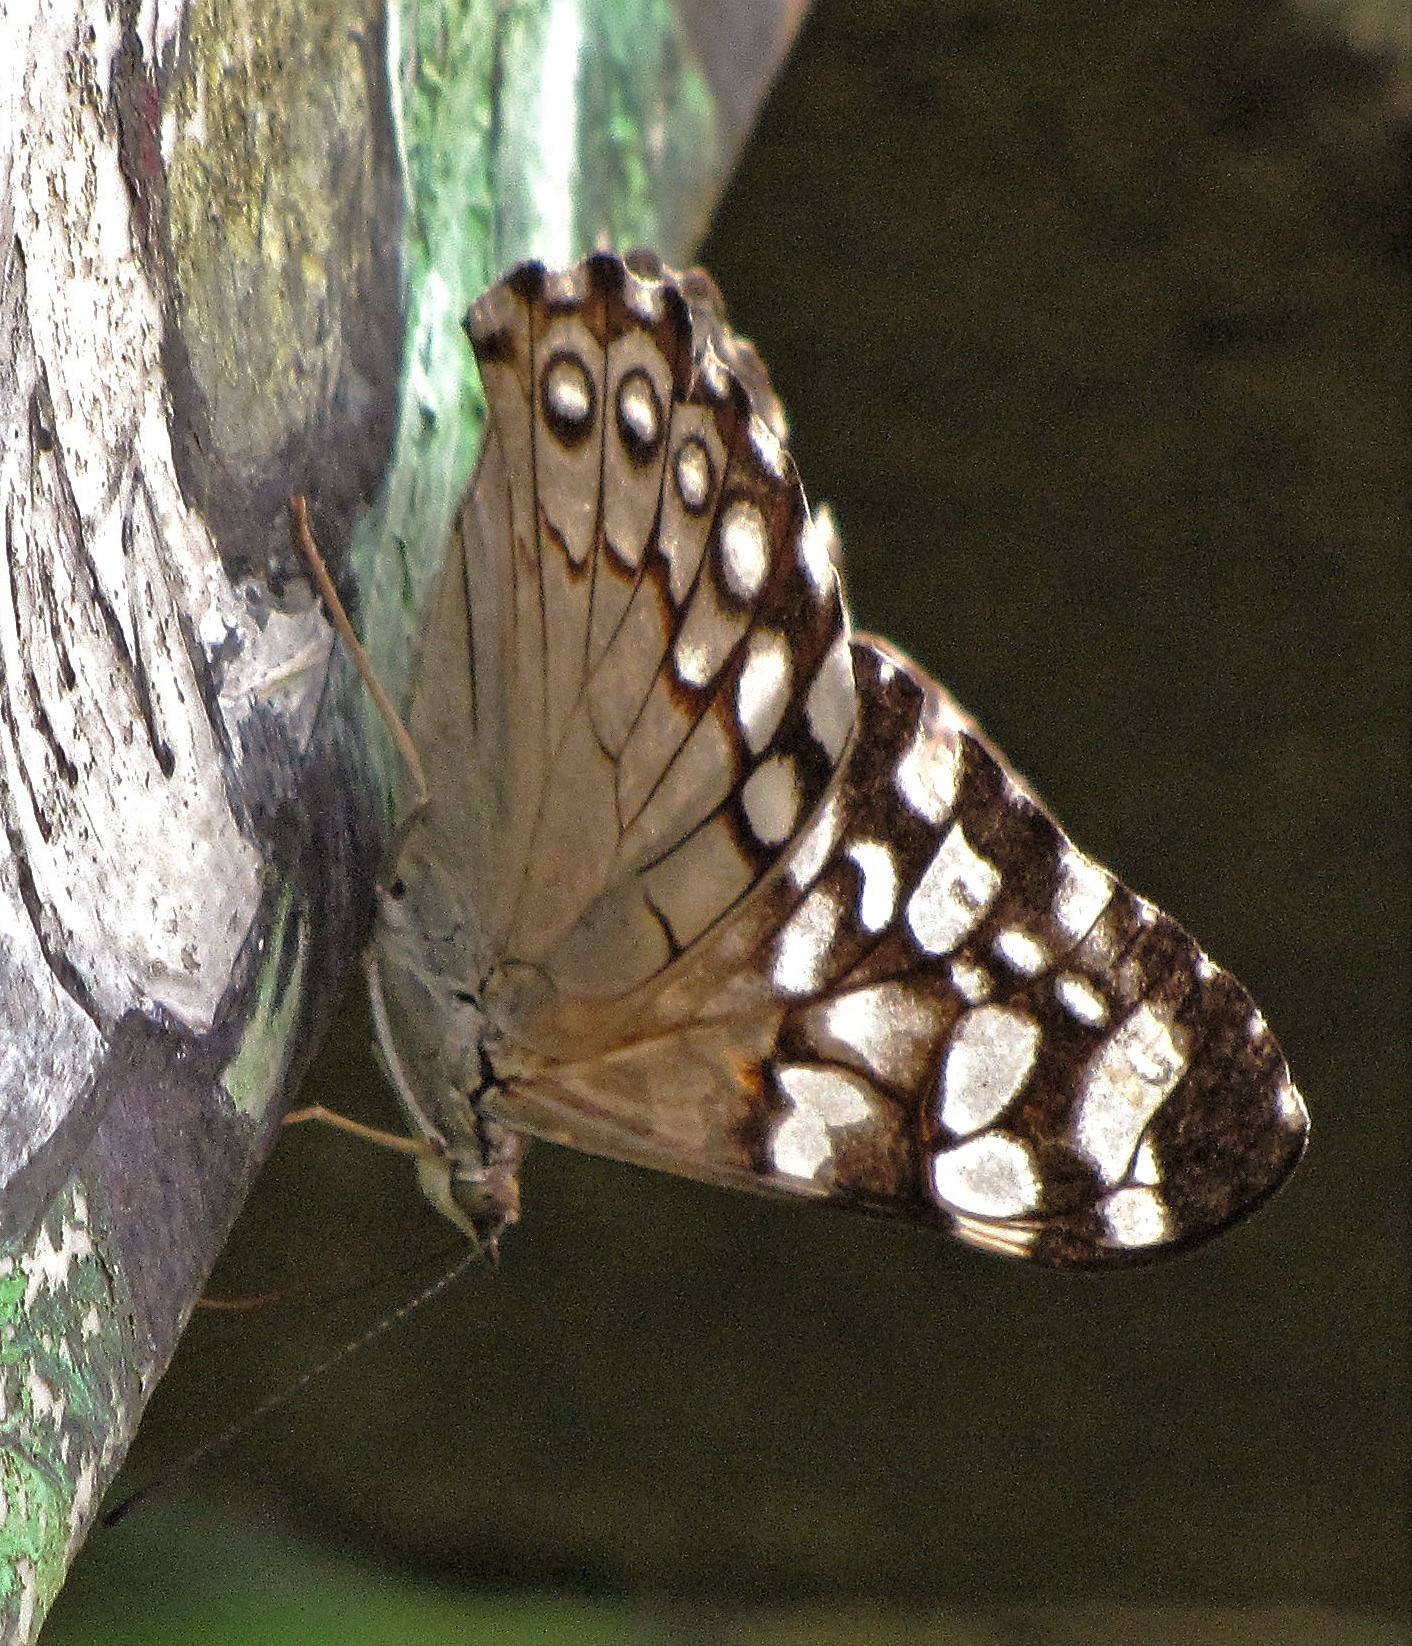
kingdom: Animalia
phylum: Arthropoda
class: Insecta
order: Lepidoptera
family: Nymphalidae
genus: Hamadryas
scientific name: Hamadryas epinome
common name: Epinome cracker
